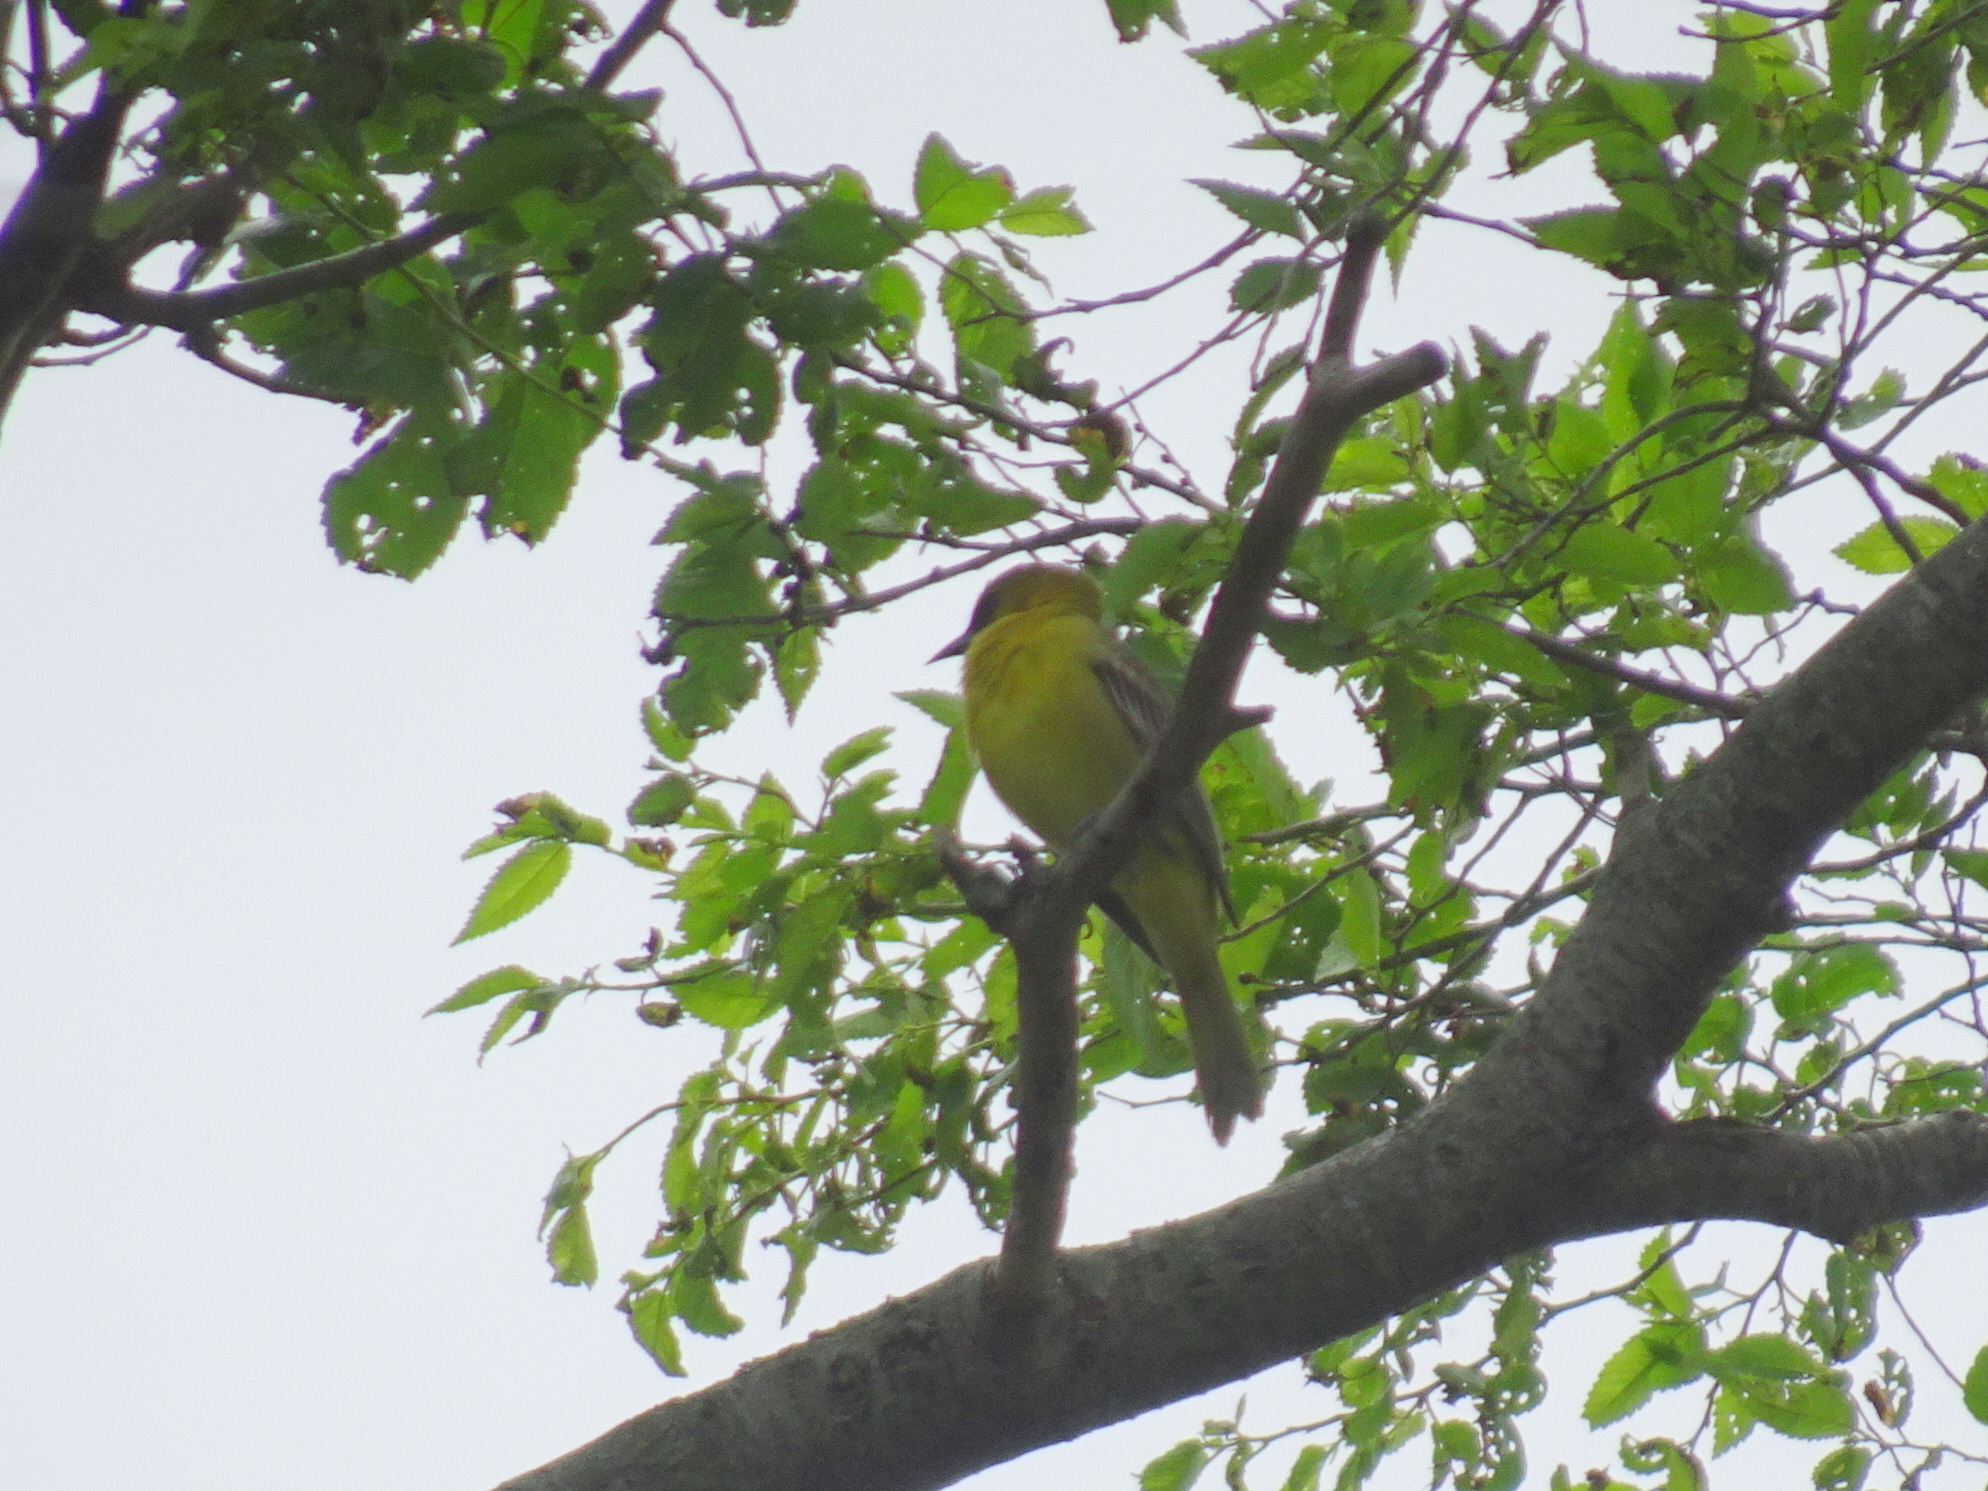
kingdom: Animalia
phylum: Chordata
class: Aves
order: Passeriformes
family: Icteridae
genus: Icterus
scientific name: Icterus spurius
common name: Orchard oriole
